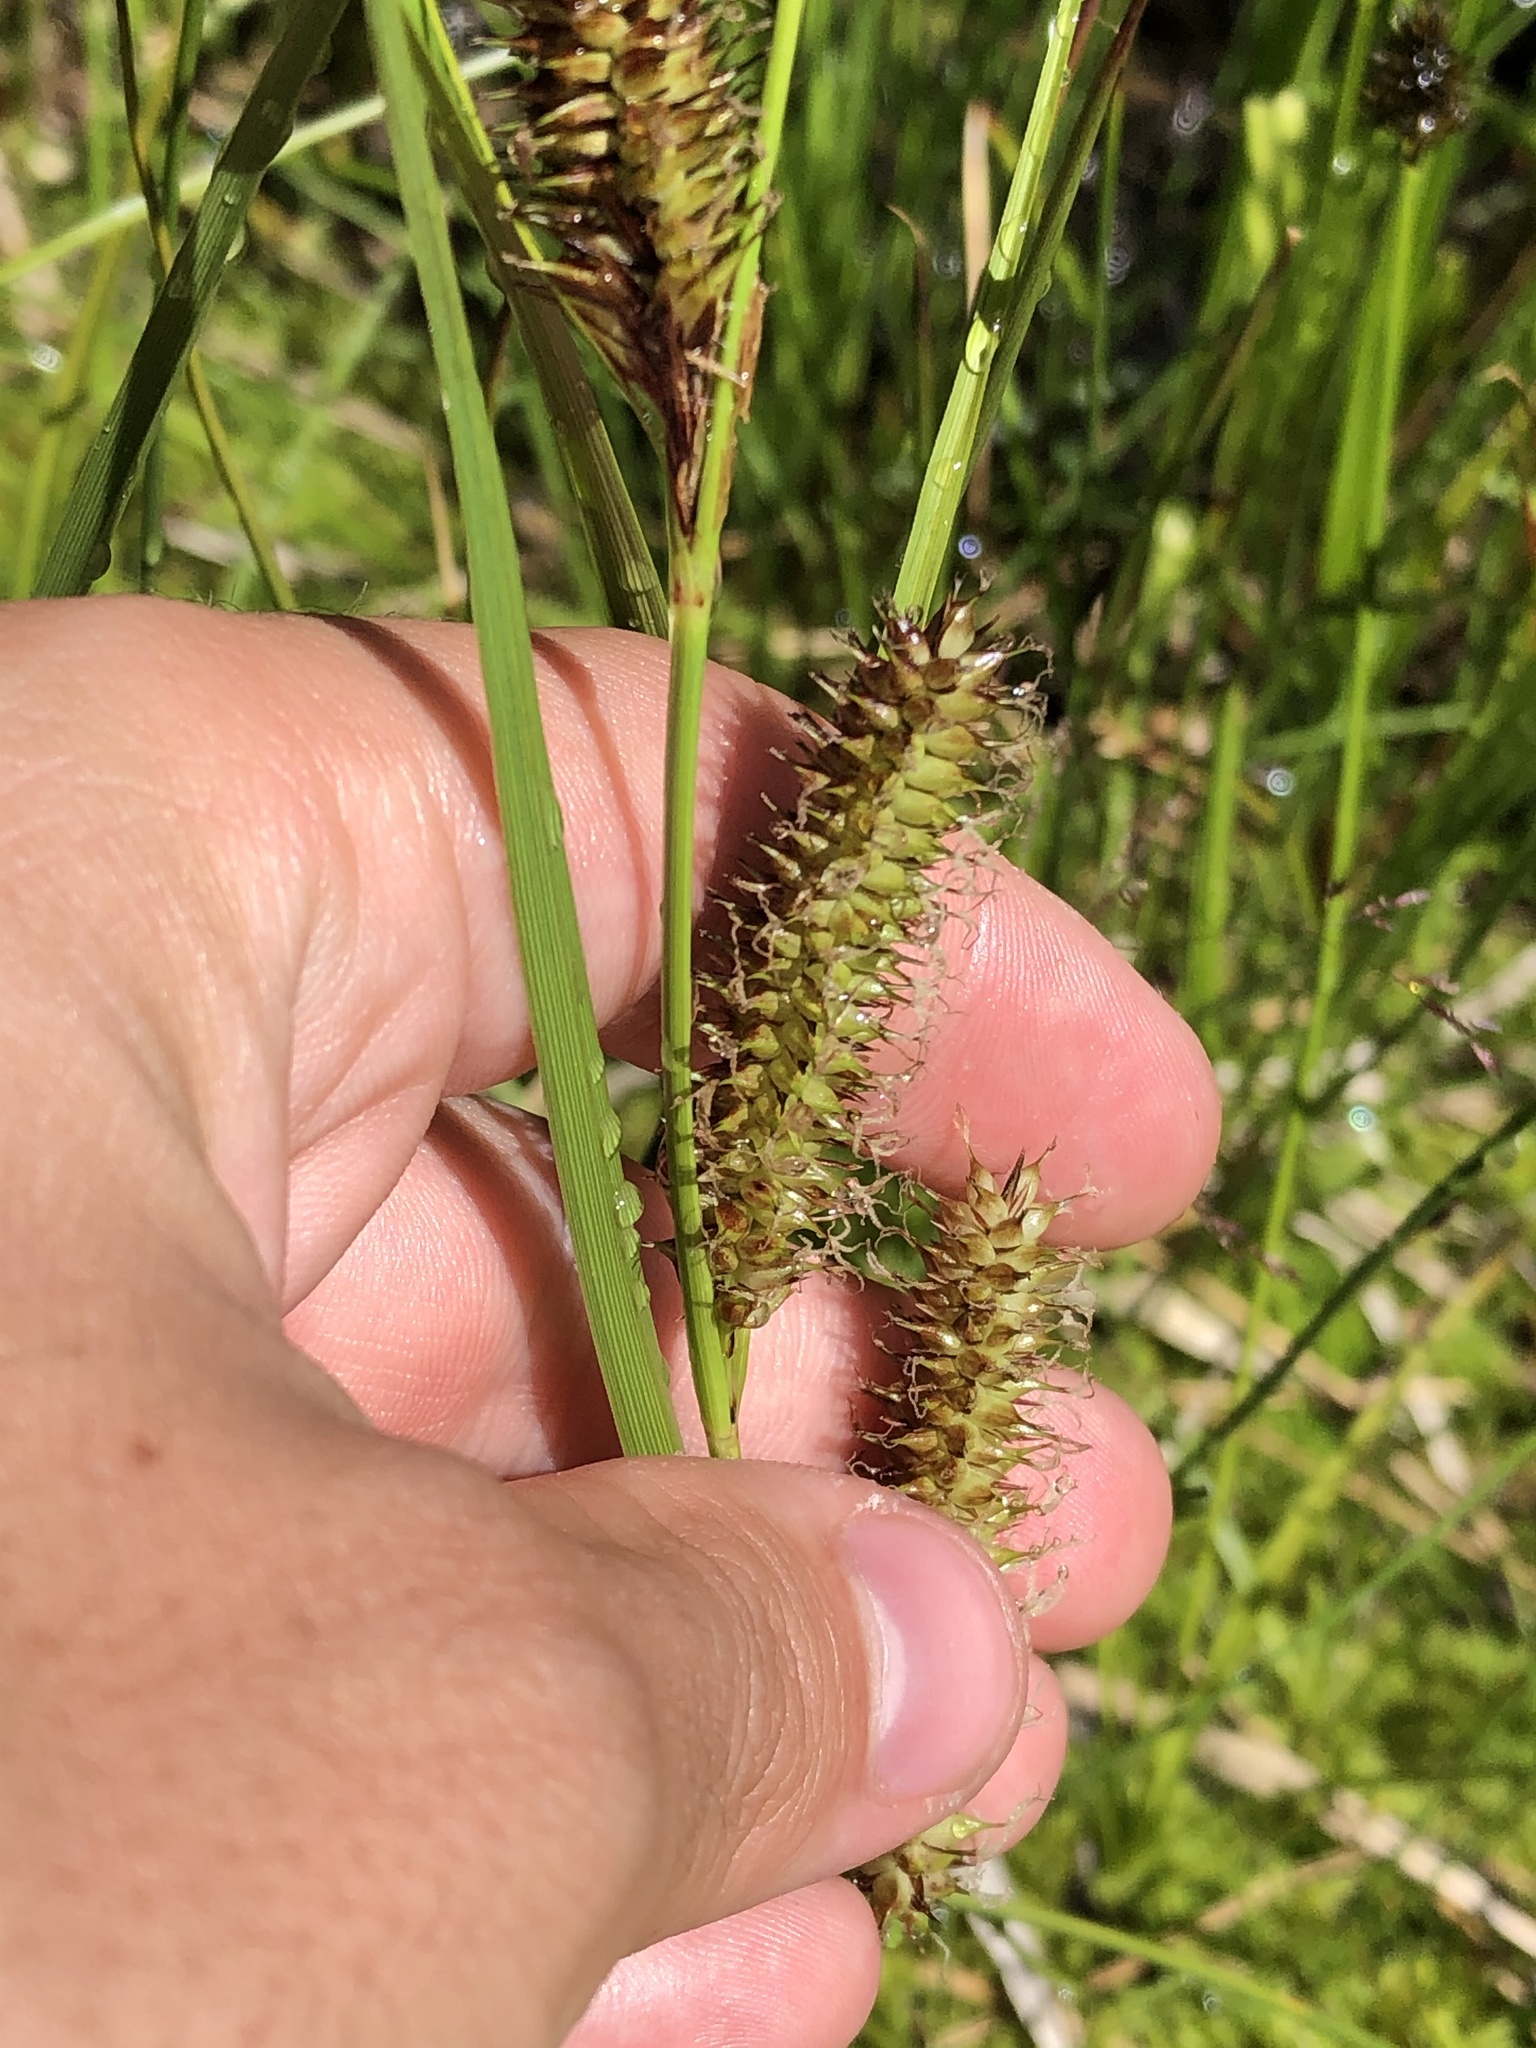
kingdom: Plantae
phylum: Tracheophyta
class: Liliopsida
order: Poales
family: Cyperaceae
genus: Carex
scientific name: Carex utriculata
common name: Beaked sedge
